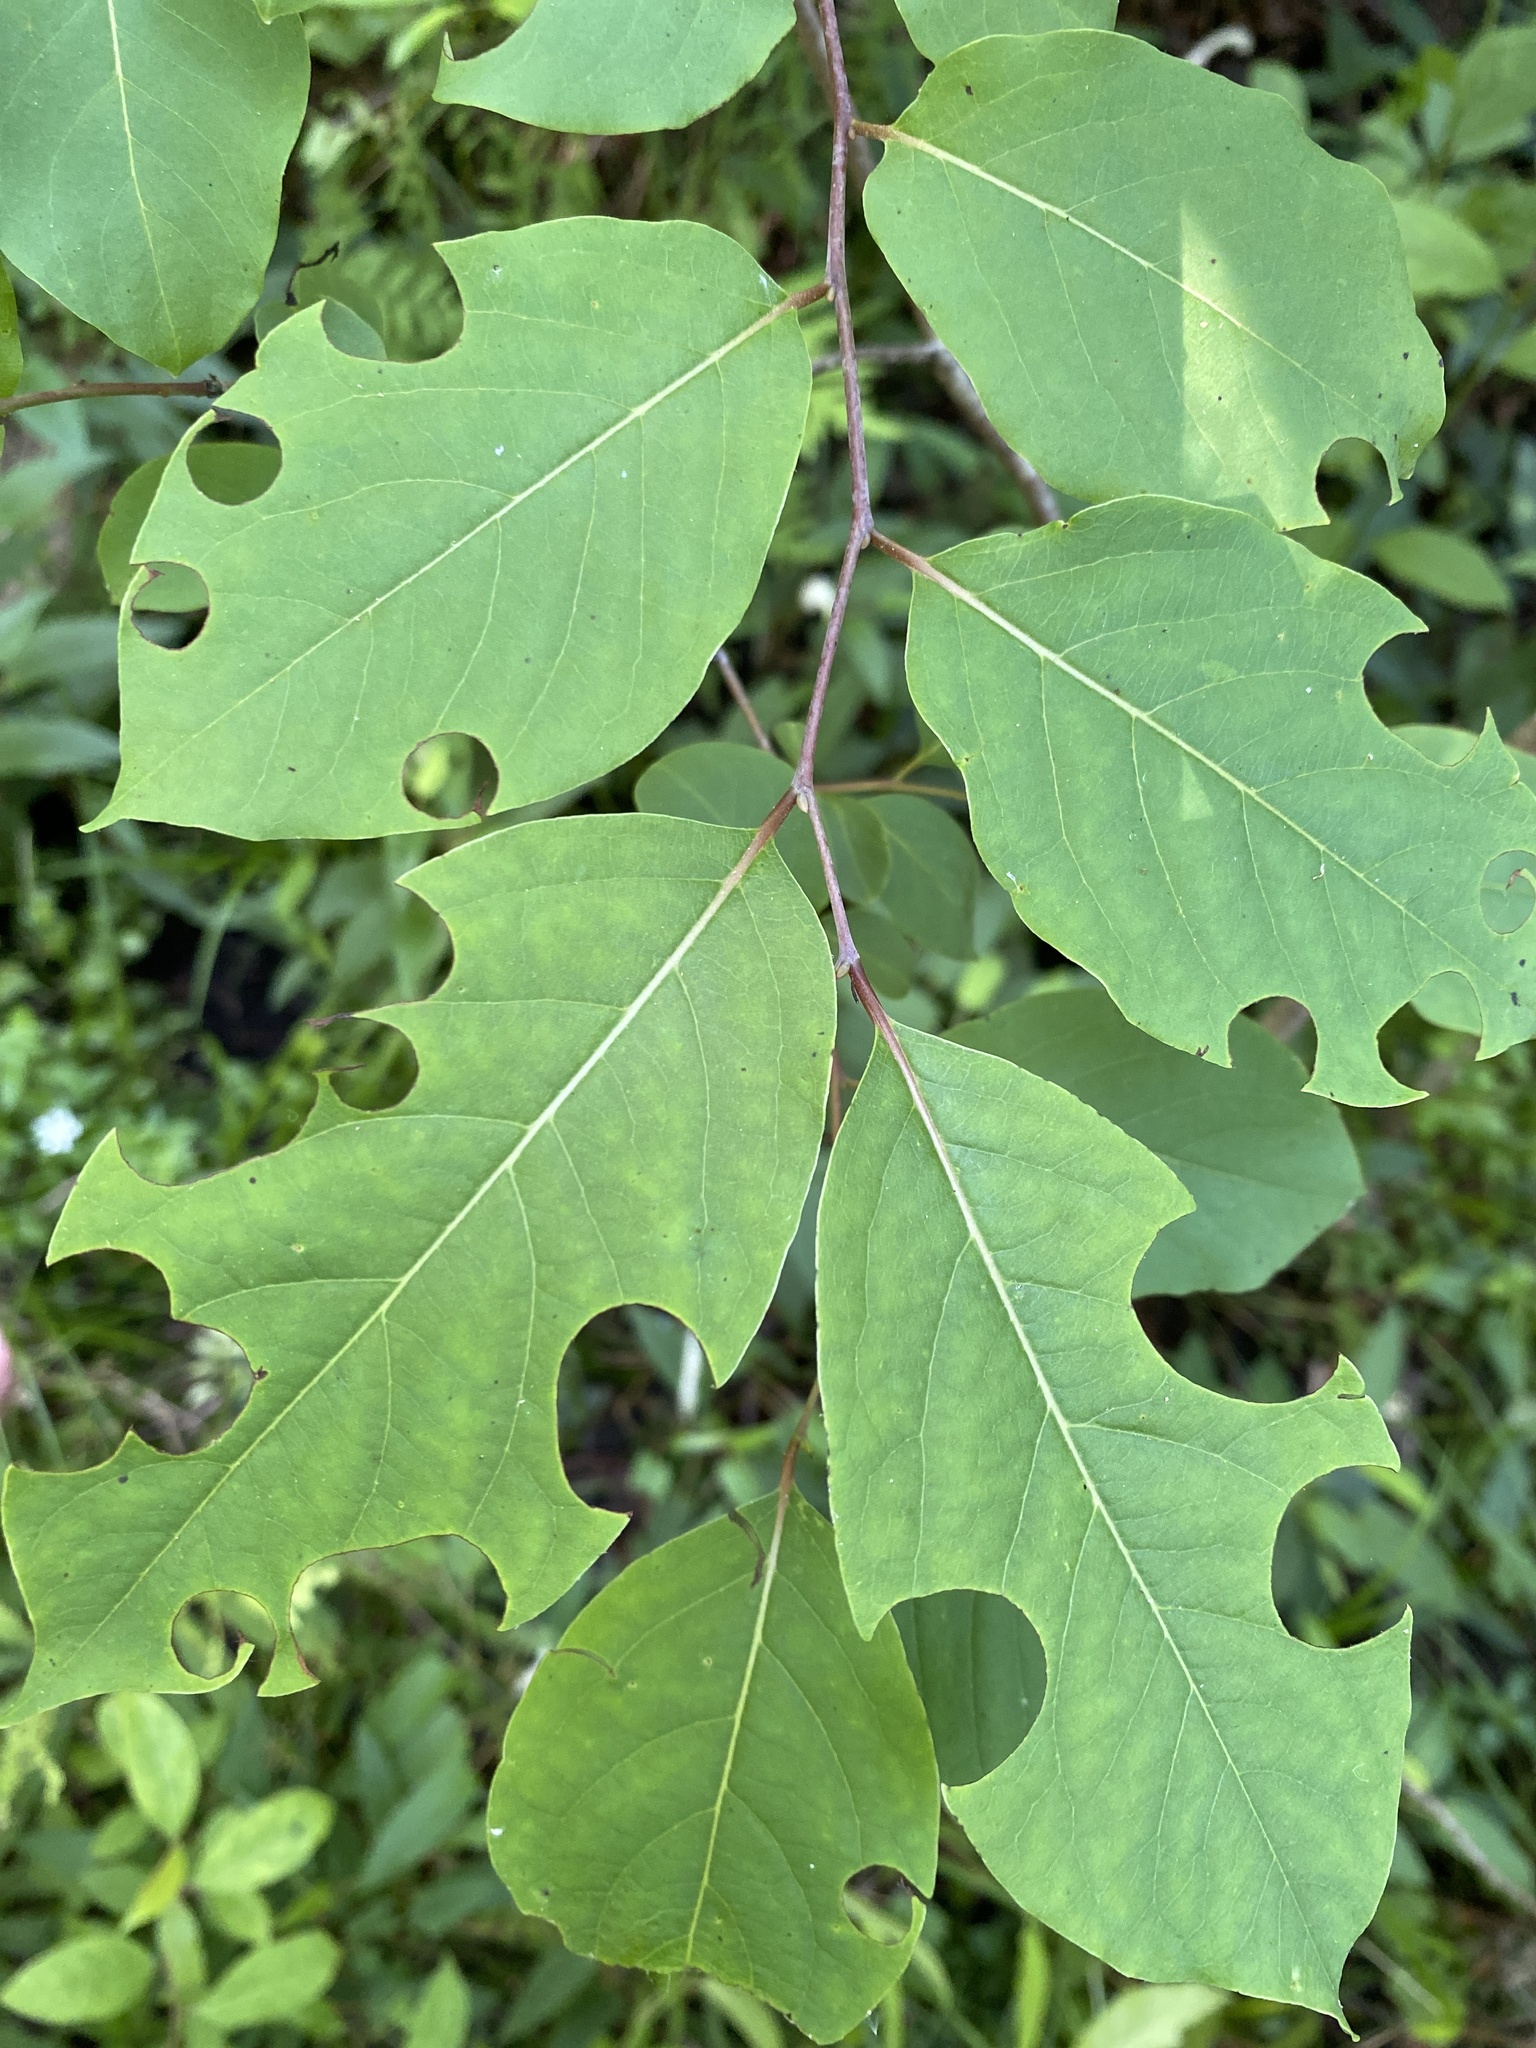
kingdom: Plantae
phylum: Tracheophyta
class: Magnoliopsida
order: Ericales
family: Ebenaceae
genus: Diospyros
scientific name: Diospyros virginiana
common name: Persimmon
